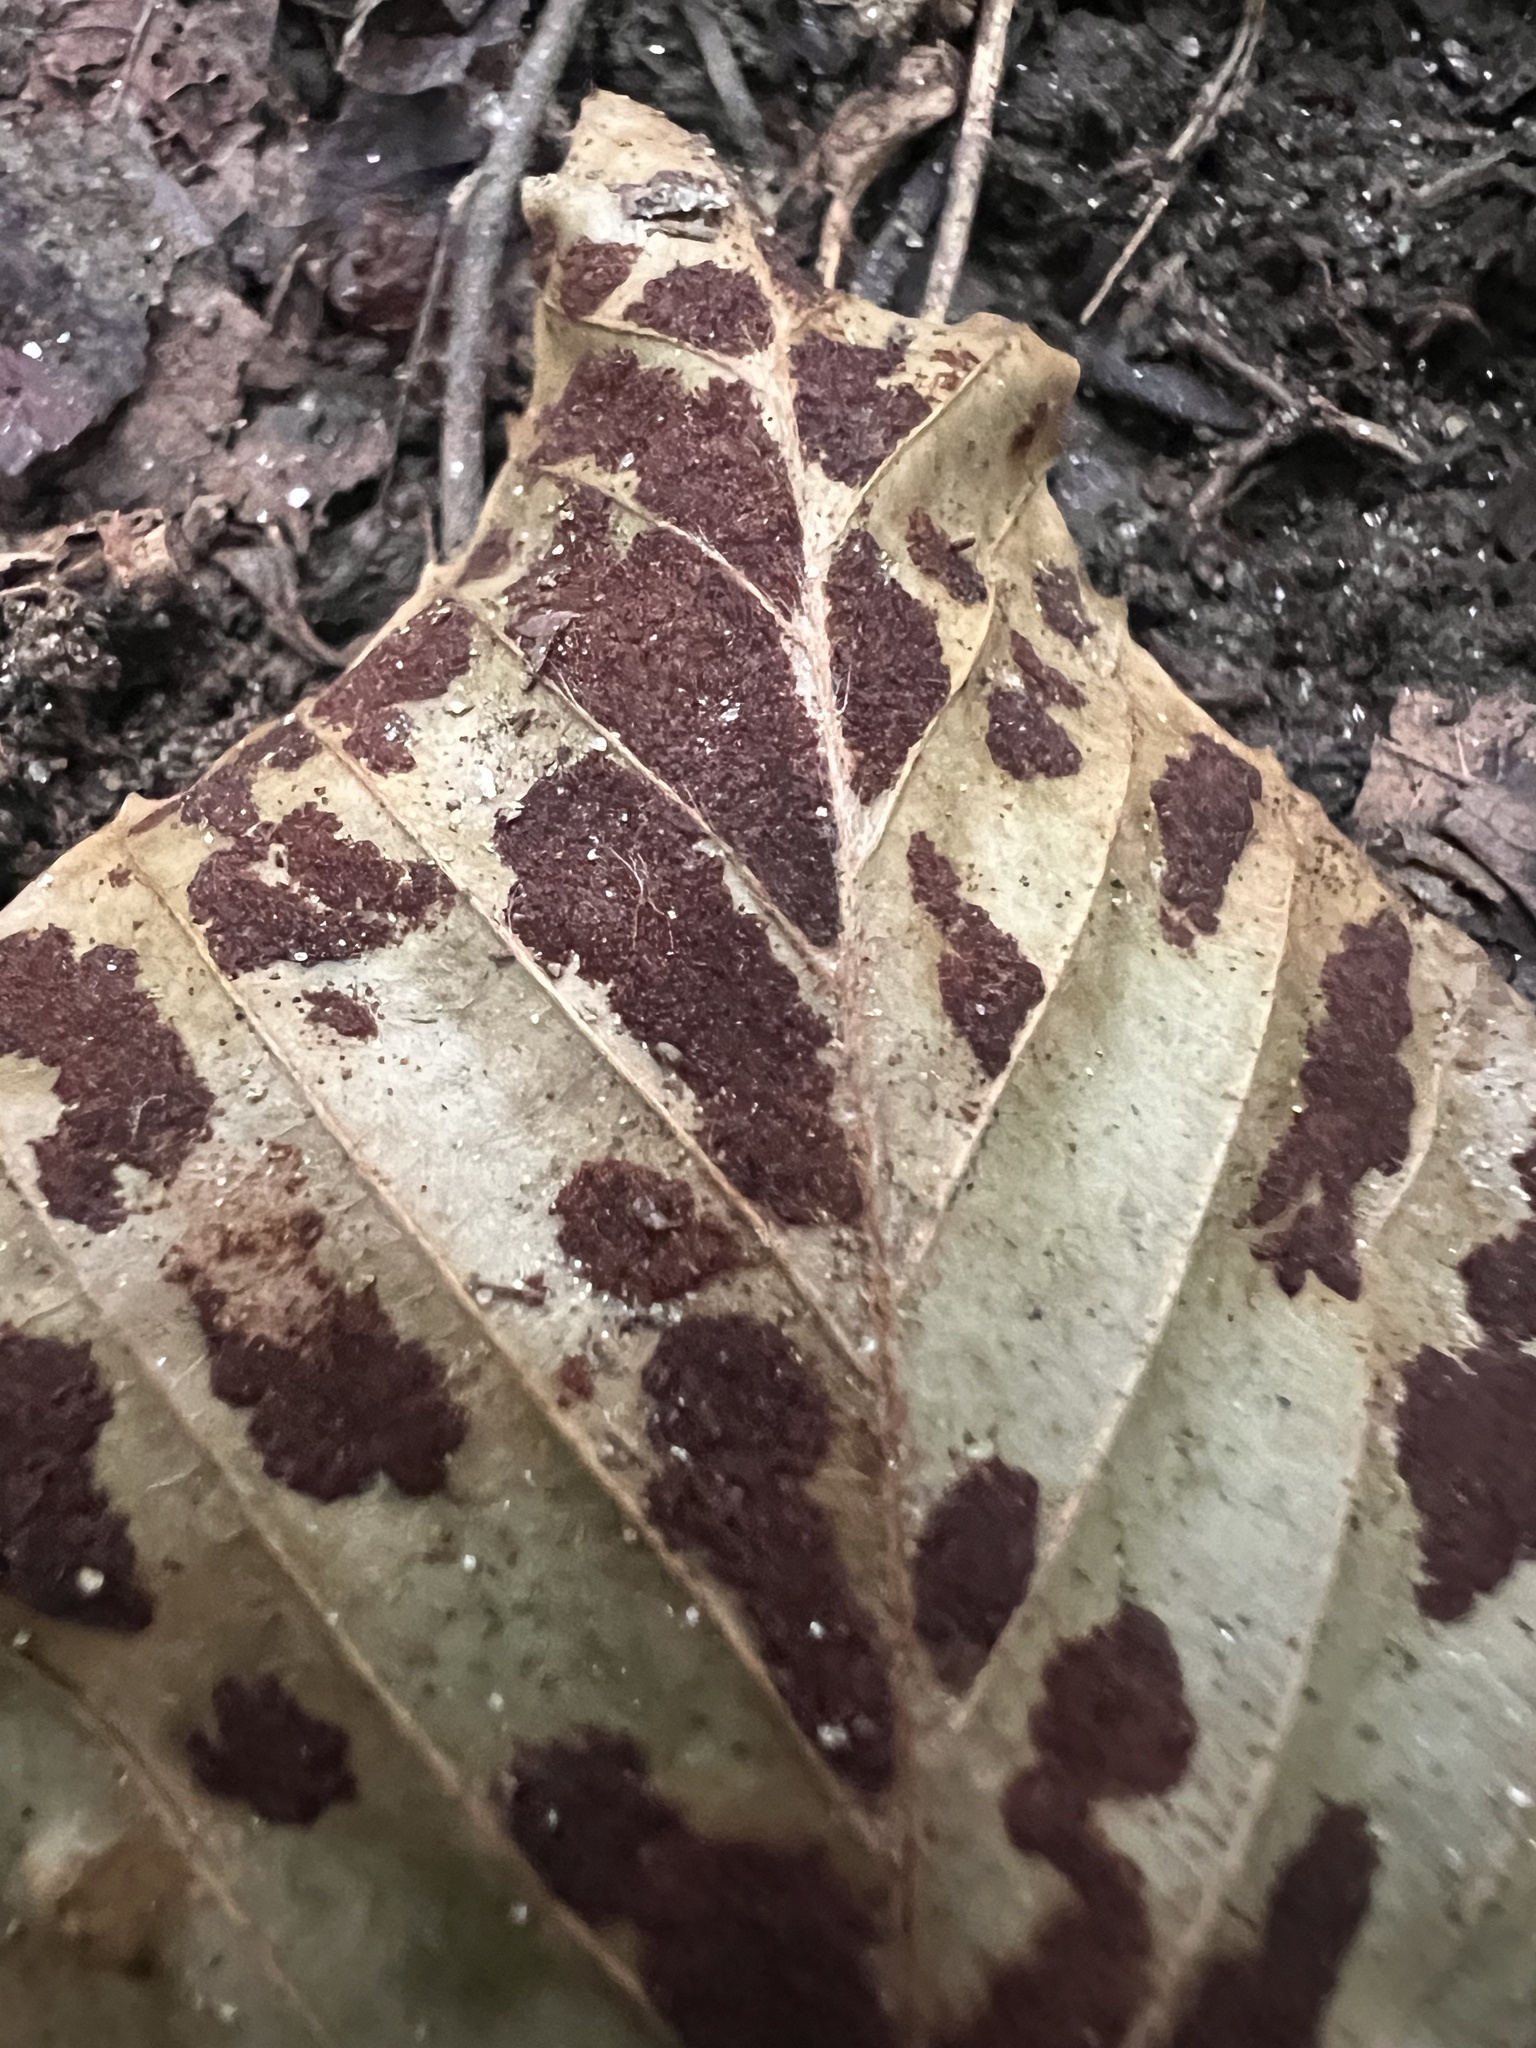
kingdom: Animalia
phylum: Arthropoda
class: Arachnida
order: Trombidiformes
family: Eriophyidae
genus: Acalitus
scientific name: Acalitus
